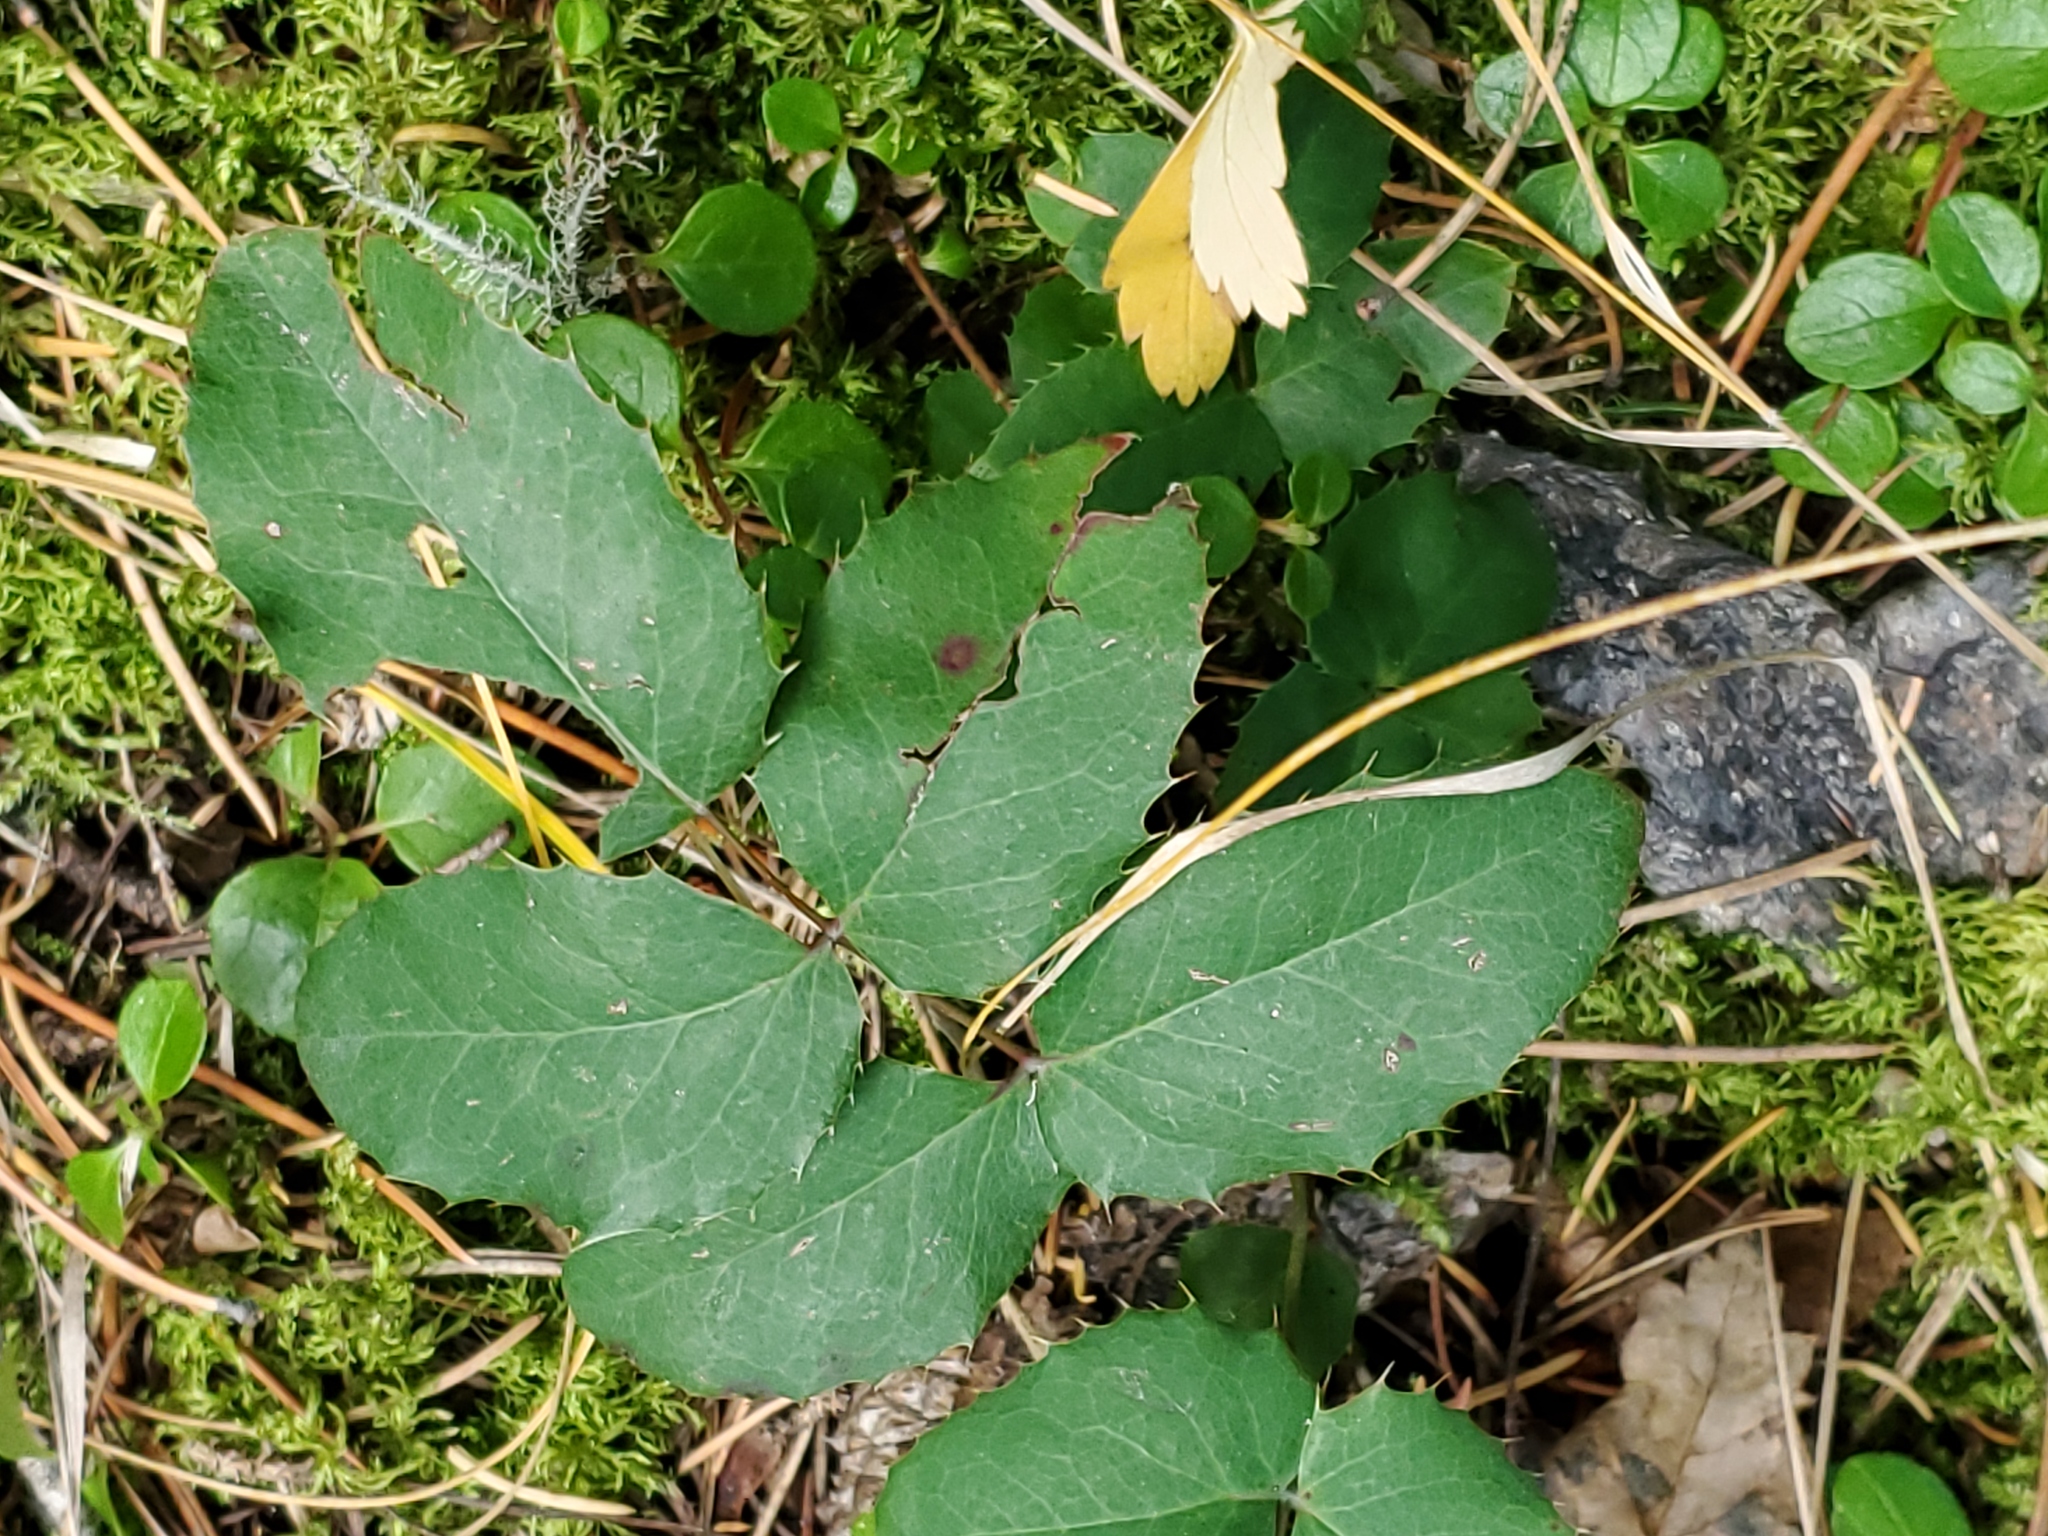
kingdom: Plantae
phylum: Tracheophyta
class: Magnoliopsida
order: Ranunculales
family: Berberidaceae
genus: Mahonia
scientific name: Mahonia repens
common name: Creeping oregon-grape
